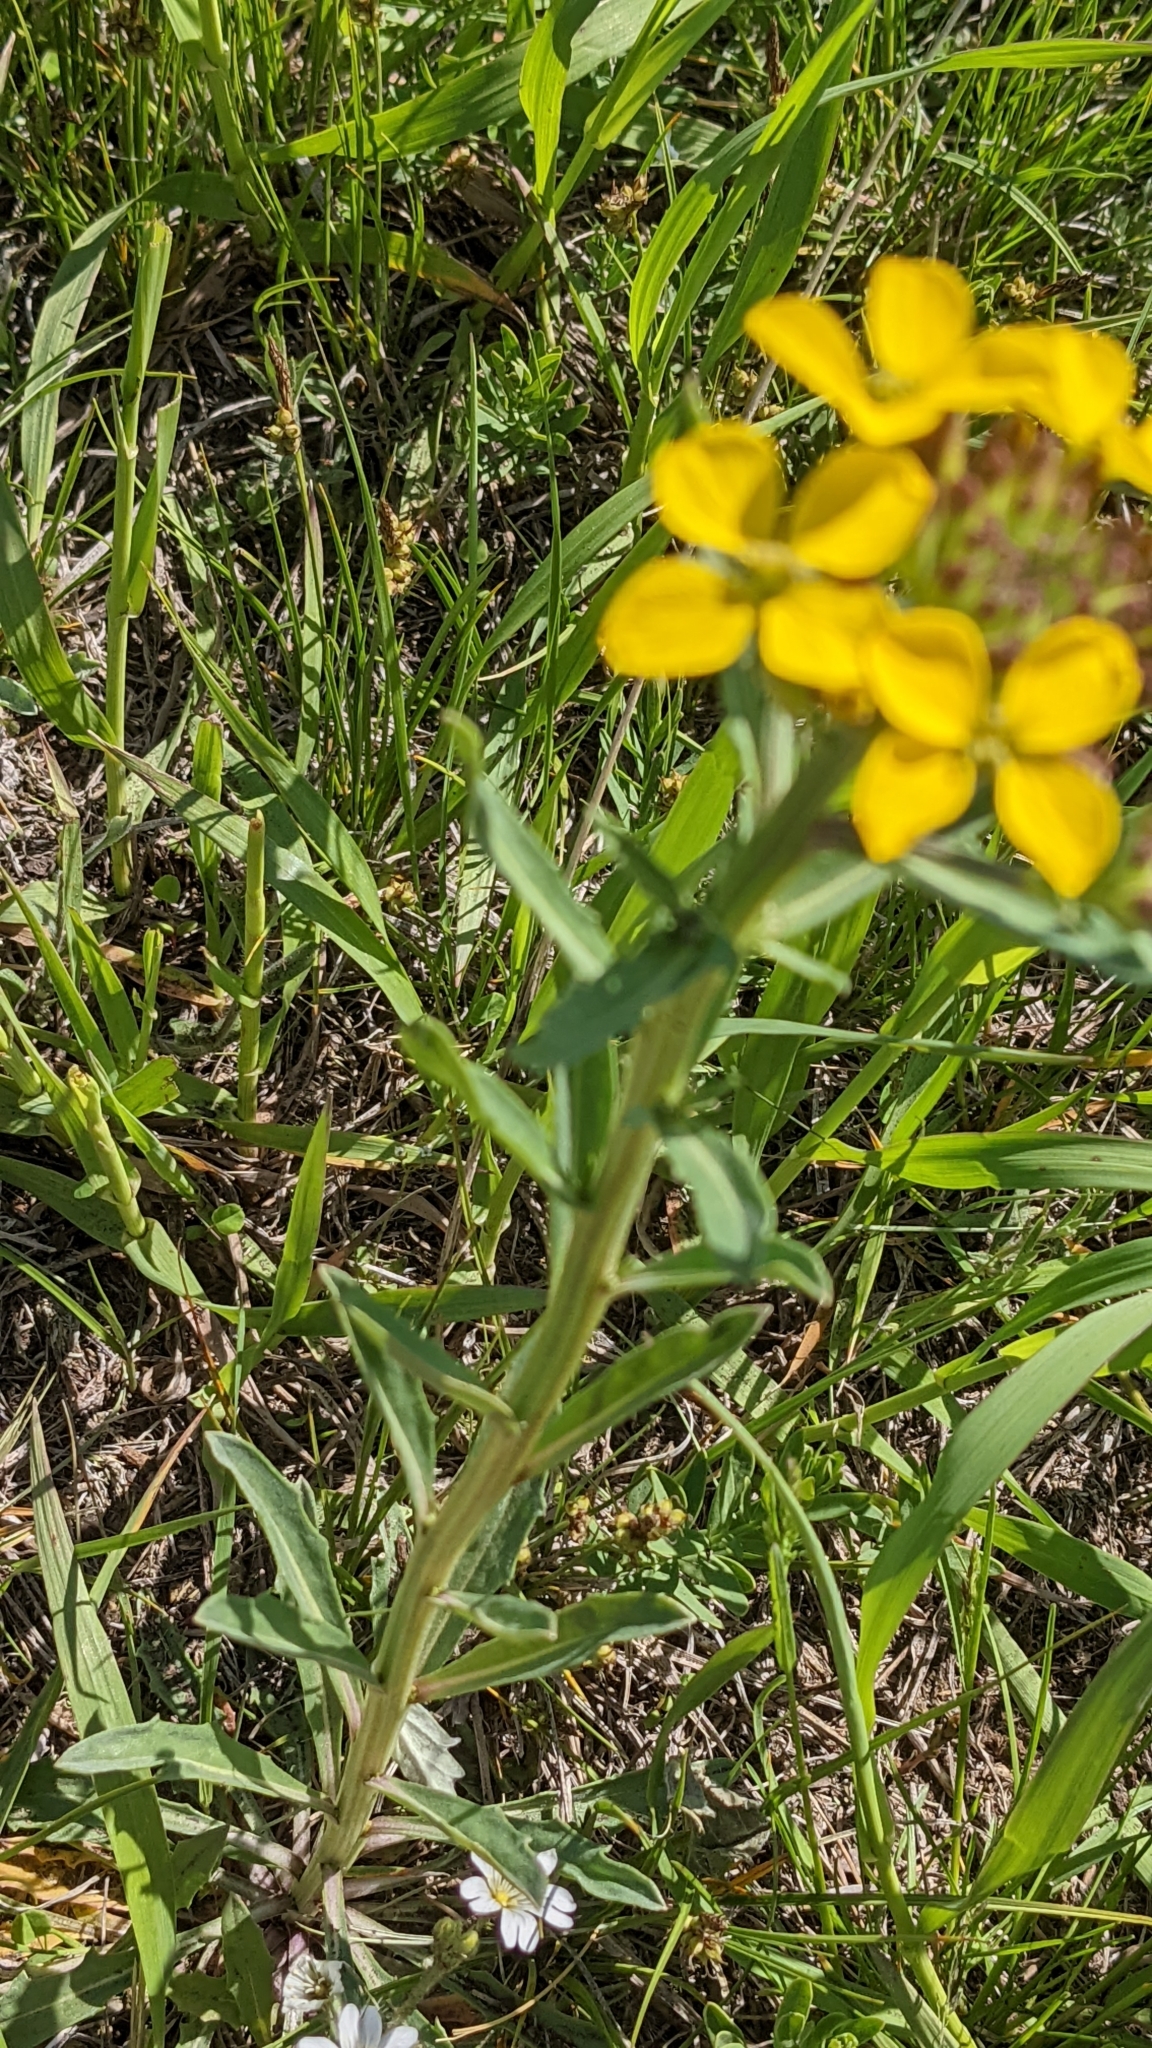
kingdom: Plantae
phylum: Tracheophyta
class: Magnoliopsida
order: Brassicales
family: Brassicaceae
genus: Erysimum
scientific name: Erysimum asperum
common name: Western wallflower
